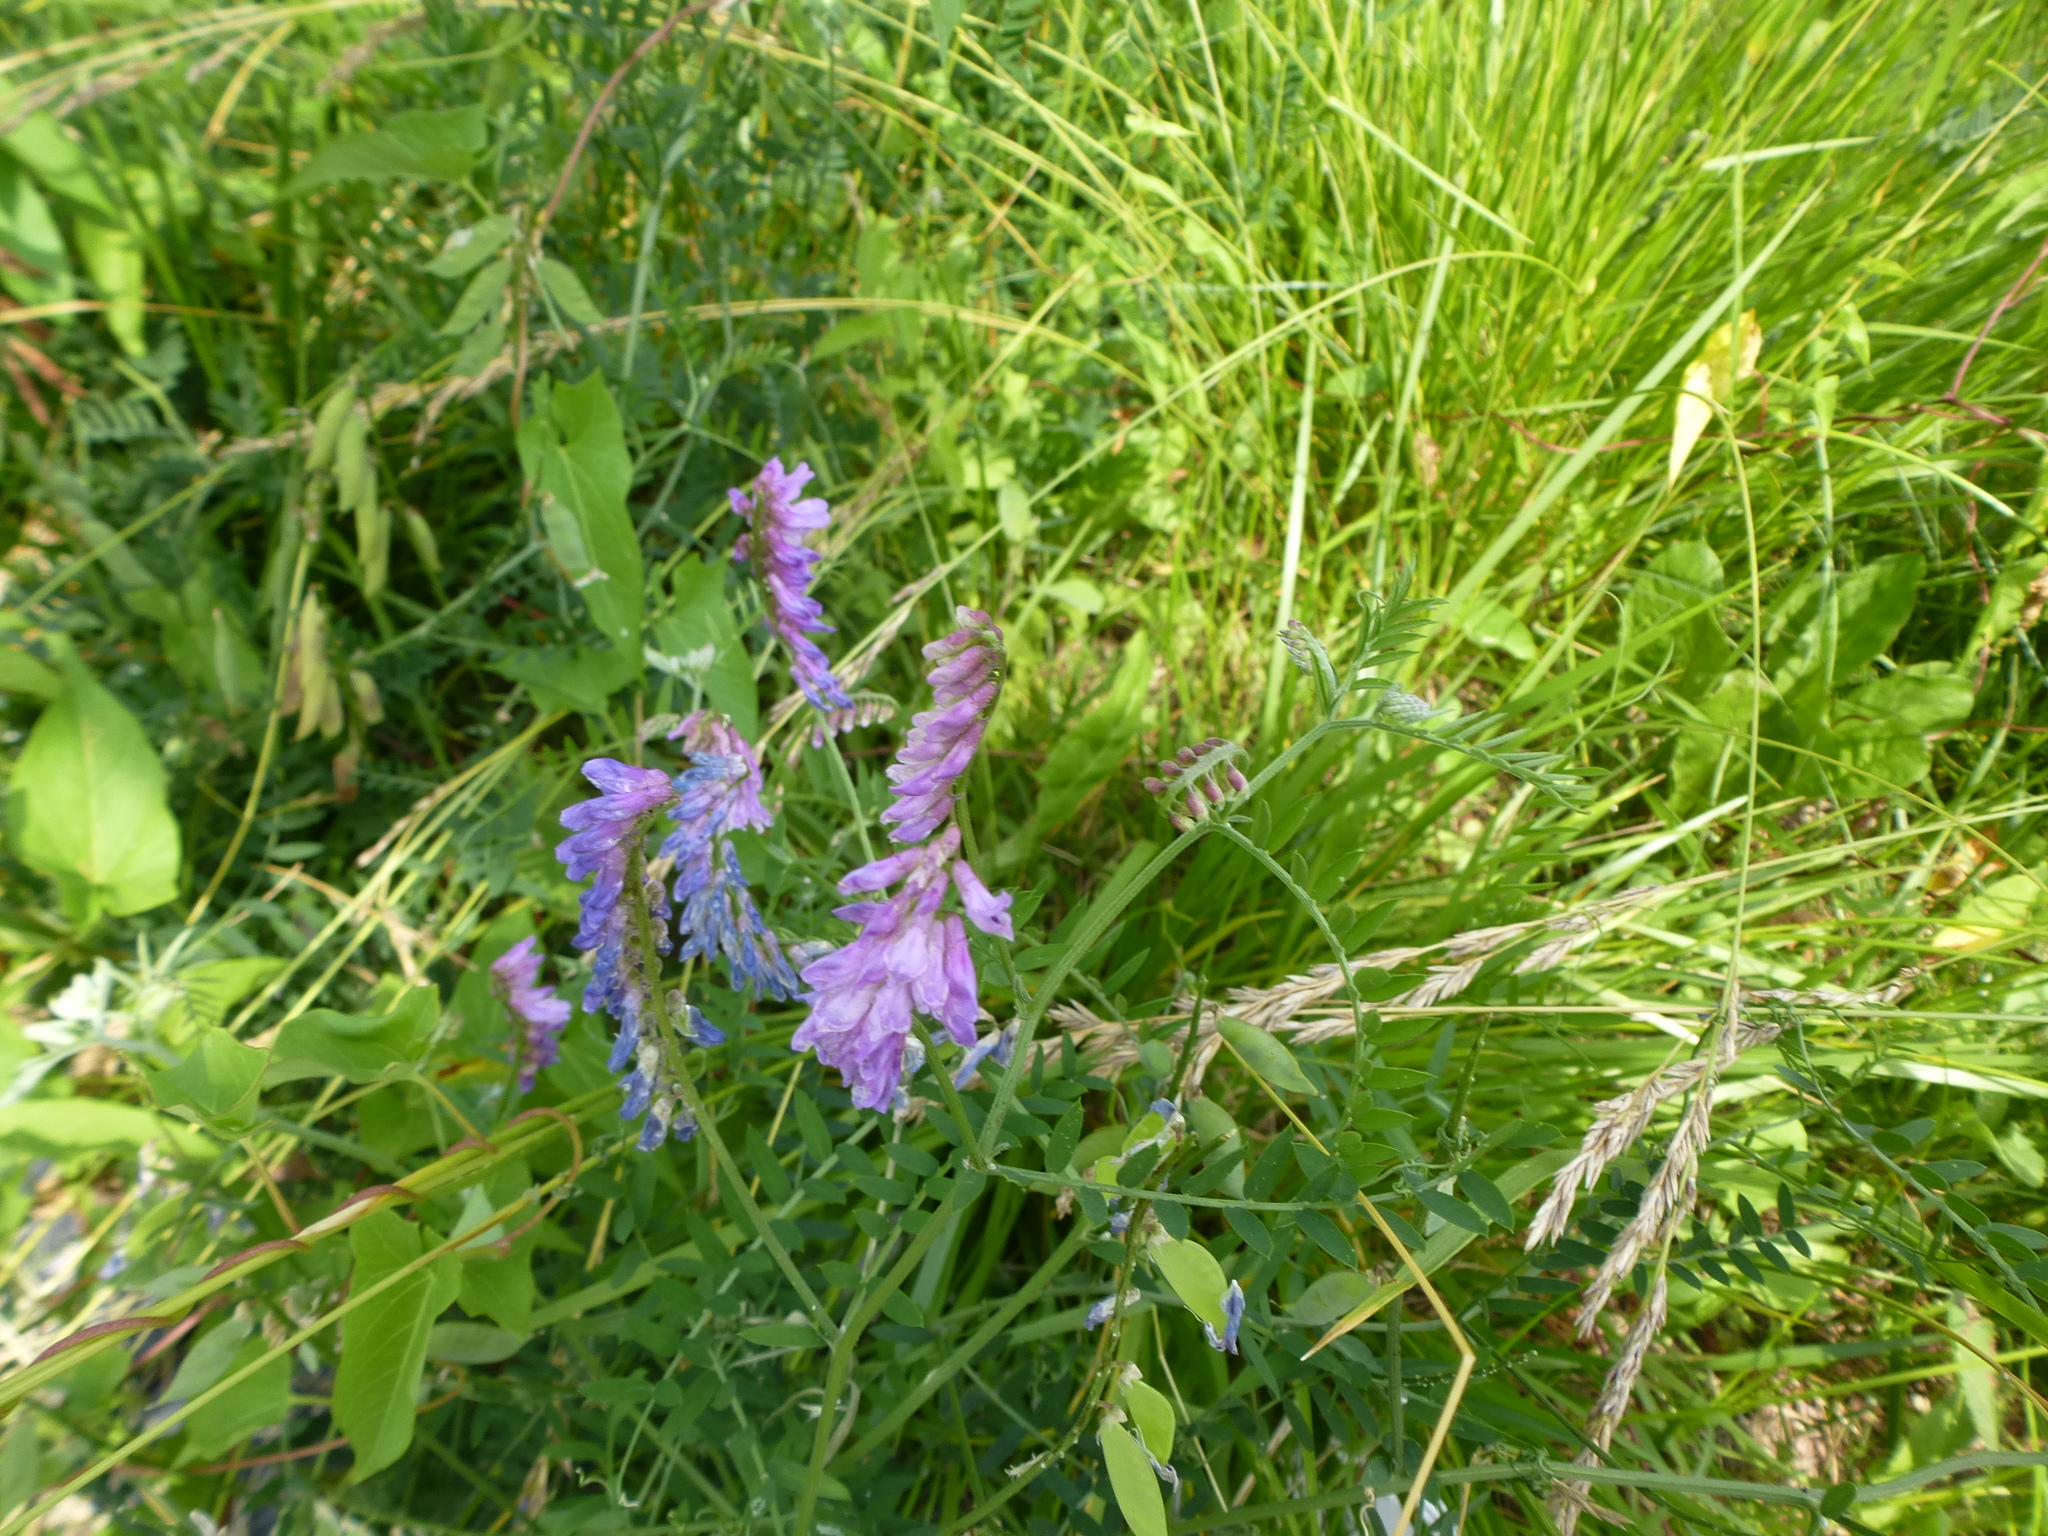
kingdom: Plantae
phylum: Tracheophyta
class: Magnoliopsida
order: Fabales
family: Fabaceae
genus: Vicia
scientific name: Vicia cracca
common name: Bird vetch
